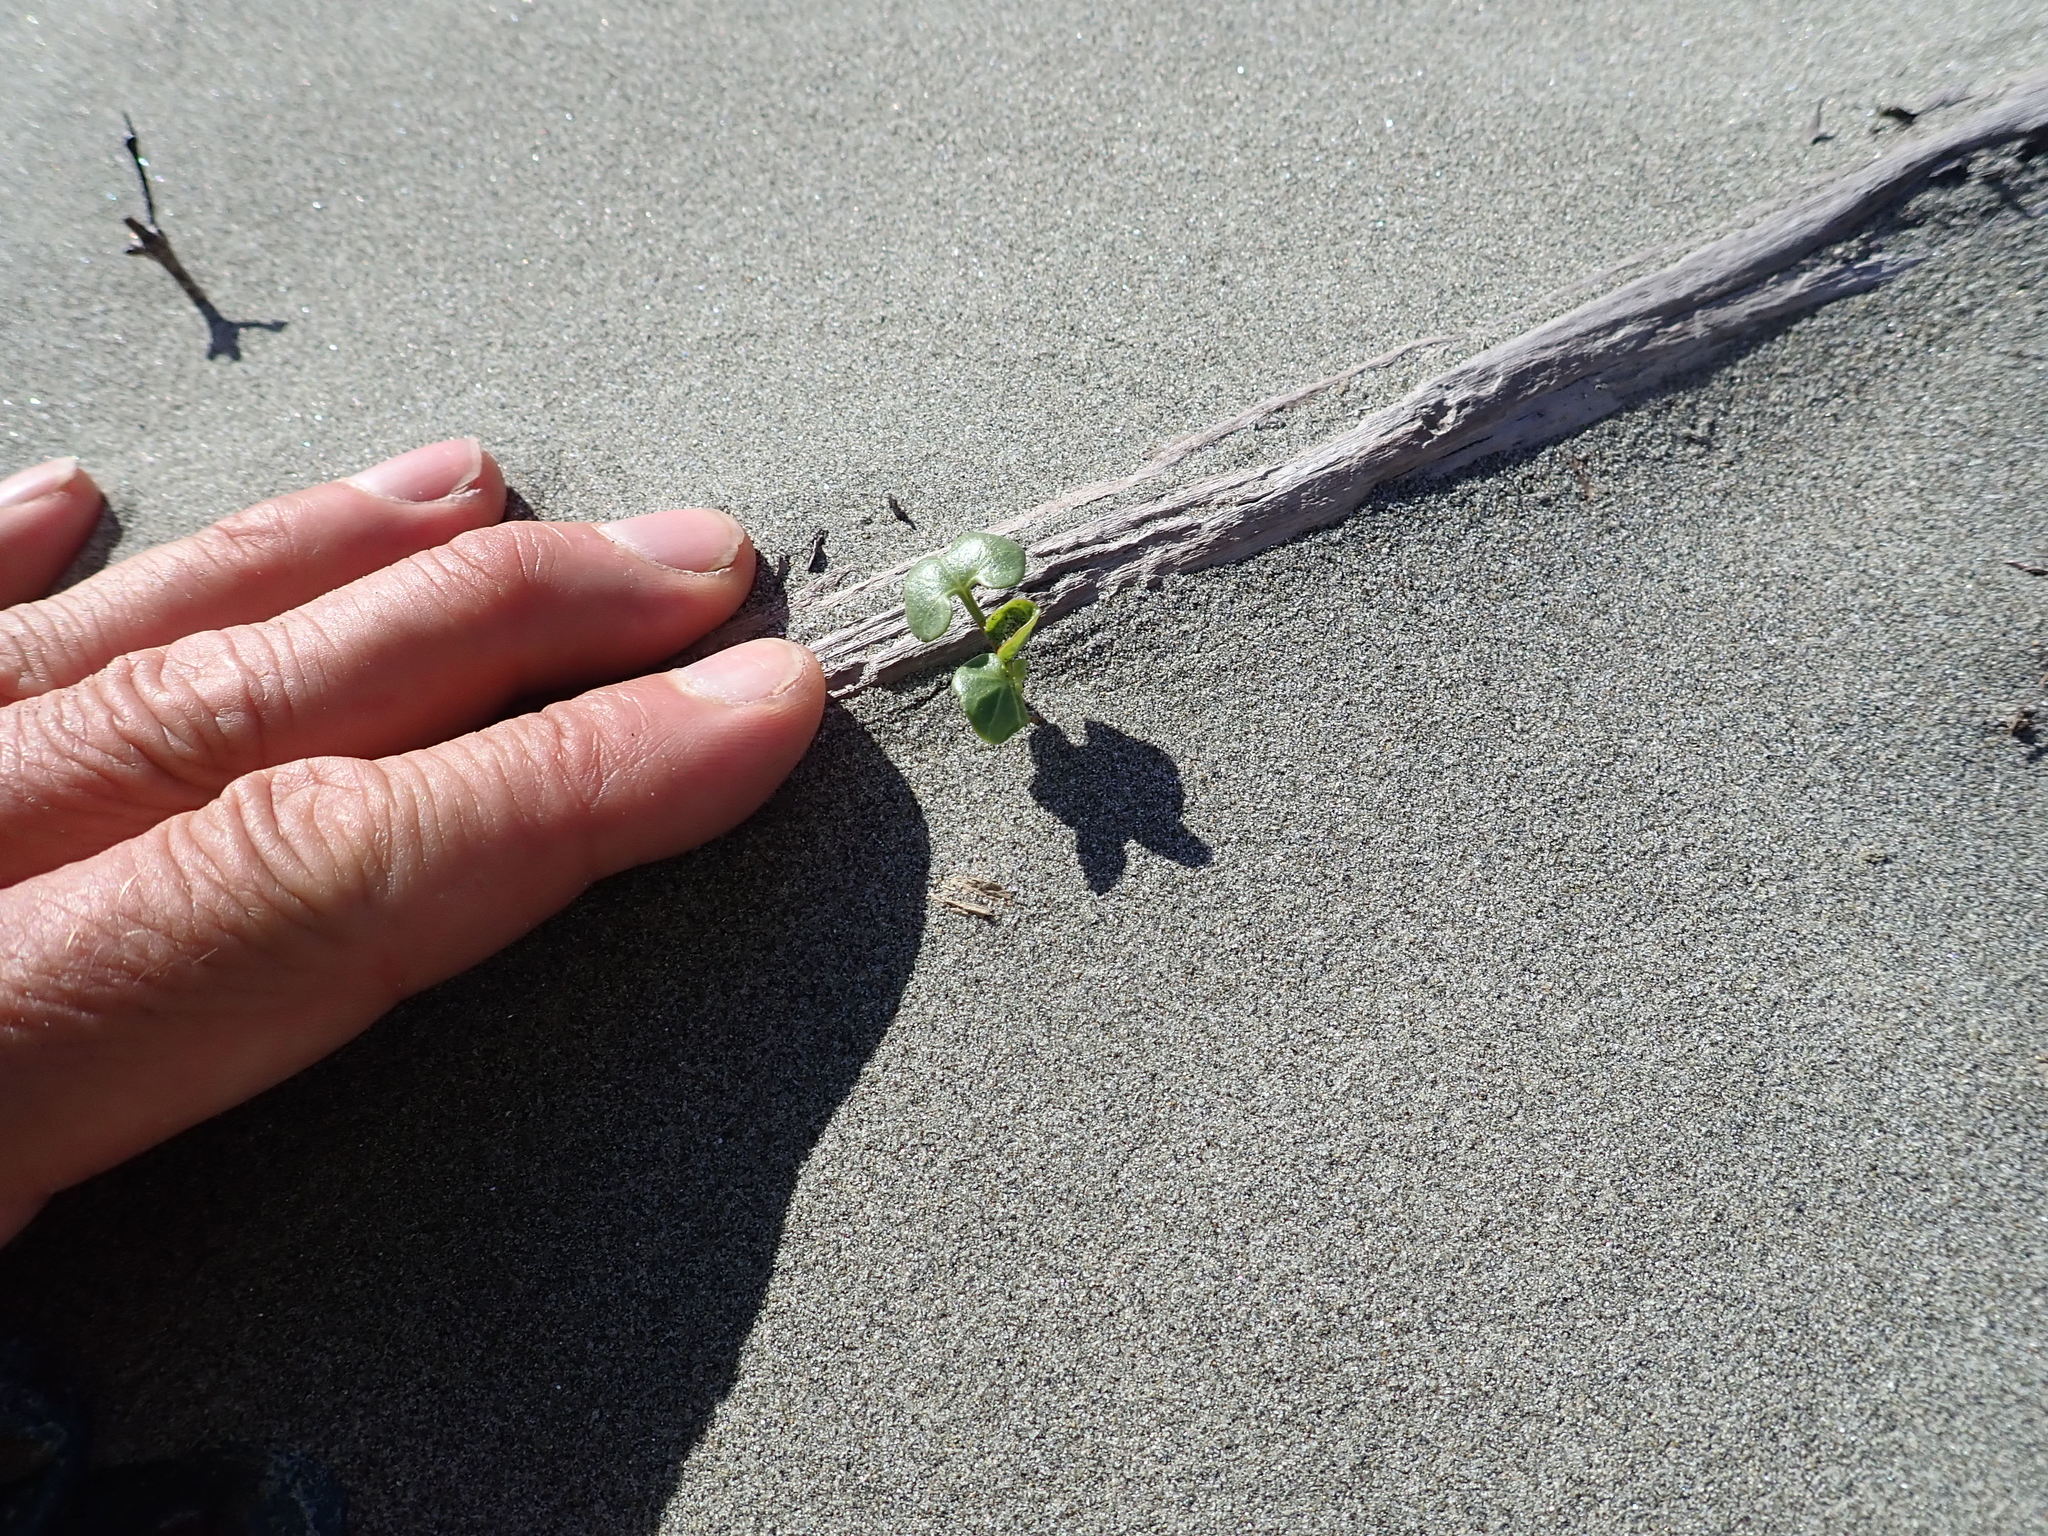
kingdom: Plantae
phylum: Tracheophyta
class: Magnoliopsida
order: Solanales
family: Convolvulaceae
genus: Calystegia
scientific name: Calystegia soldanella
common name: Sea bindweed
